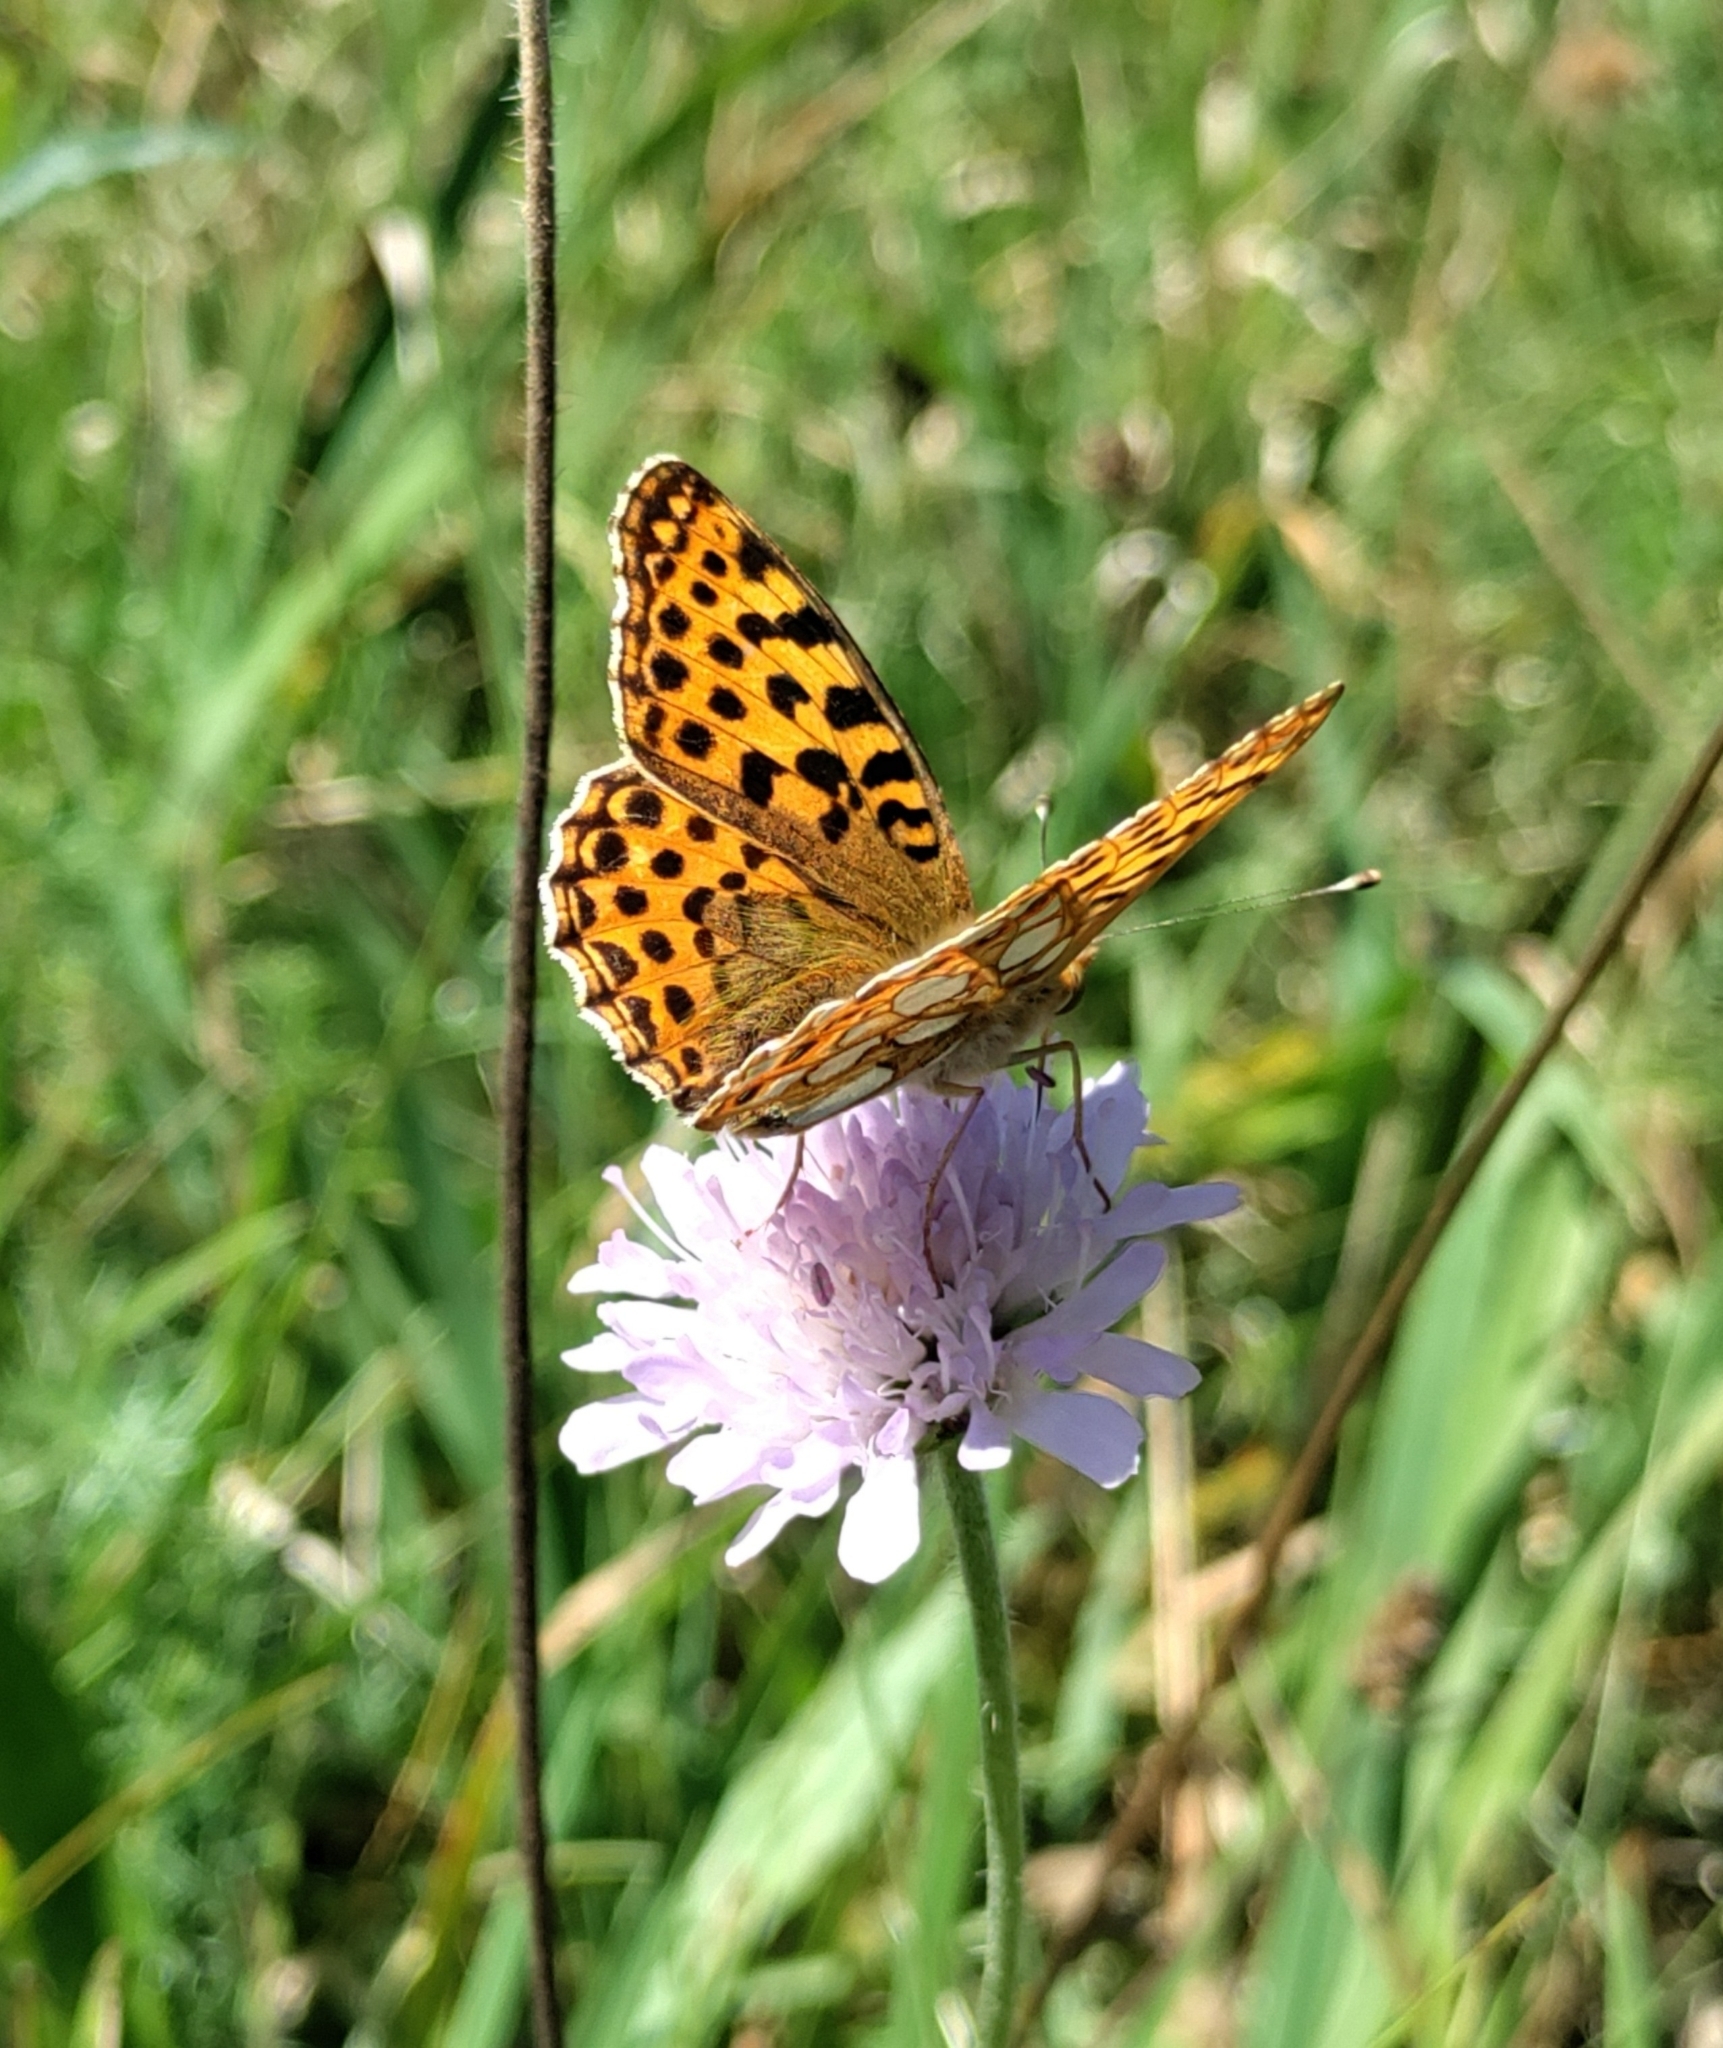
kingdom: Animalia
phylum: Arthropoda
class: Insecta
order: Lepidoptera
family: Nymphalidae
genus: Issoria
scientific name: Issoria lathonia
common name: Queen of spain fritillary
